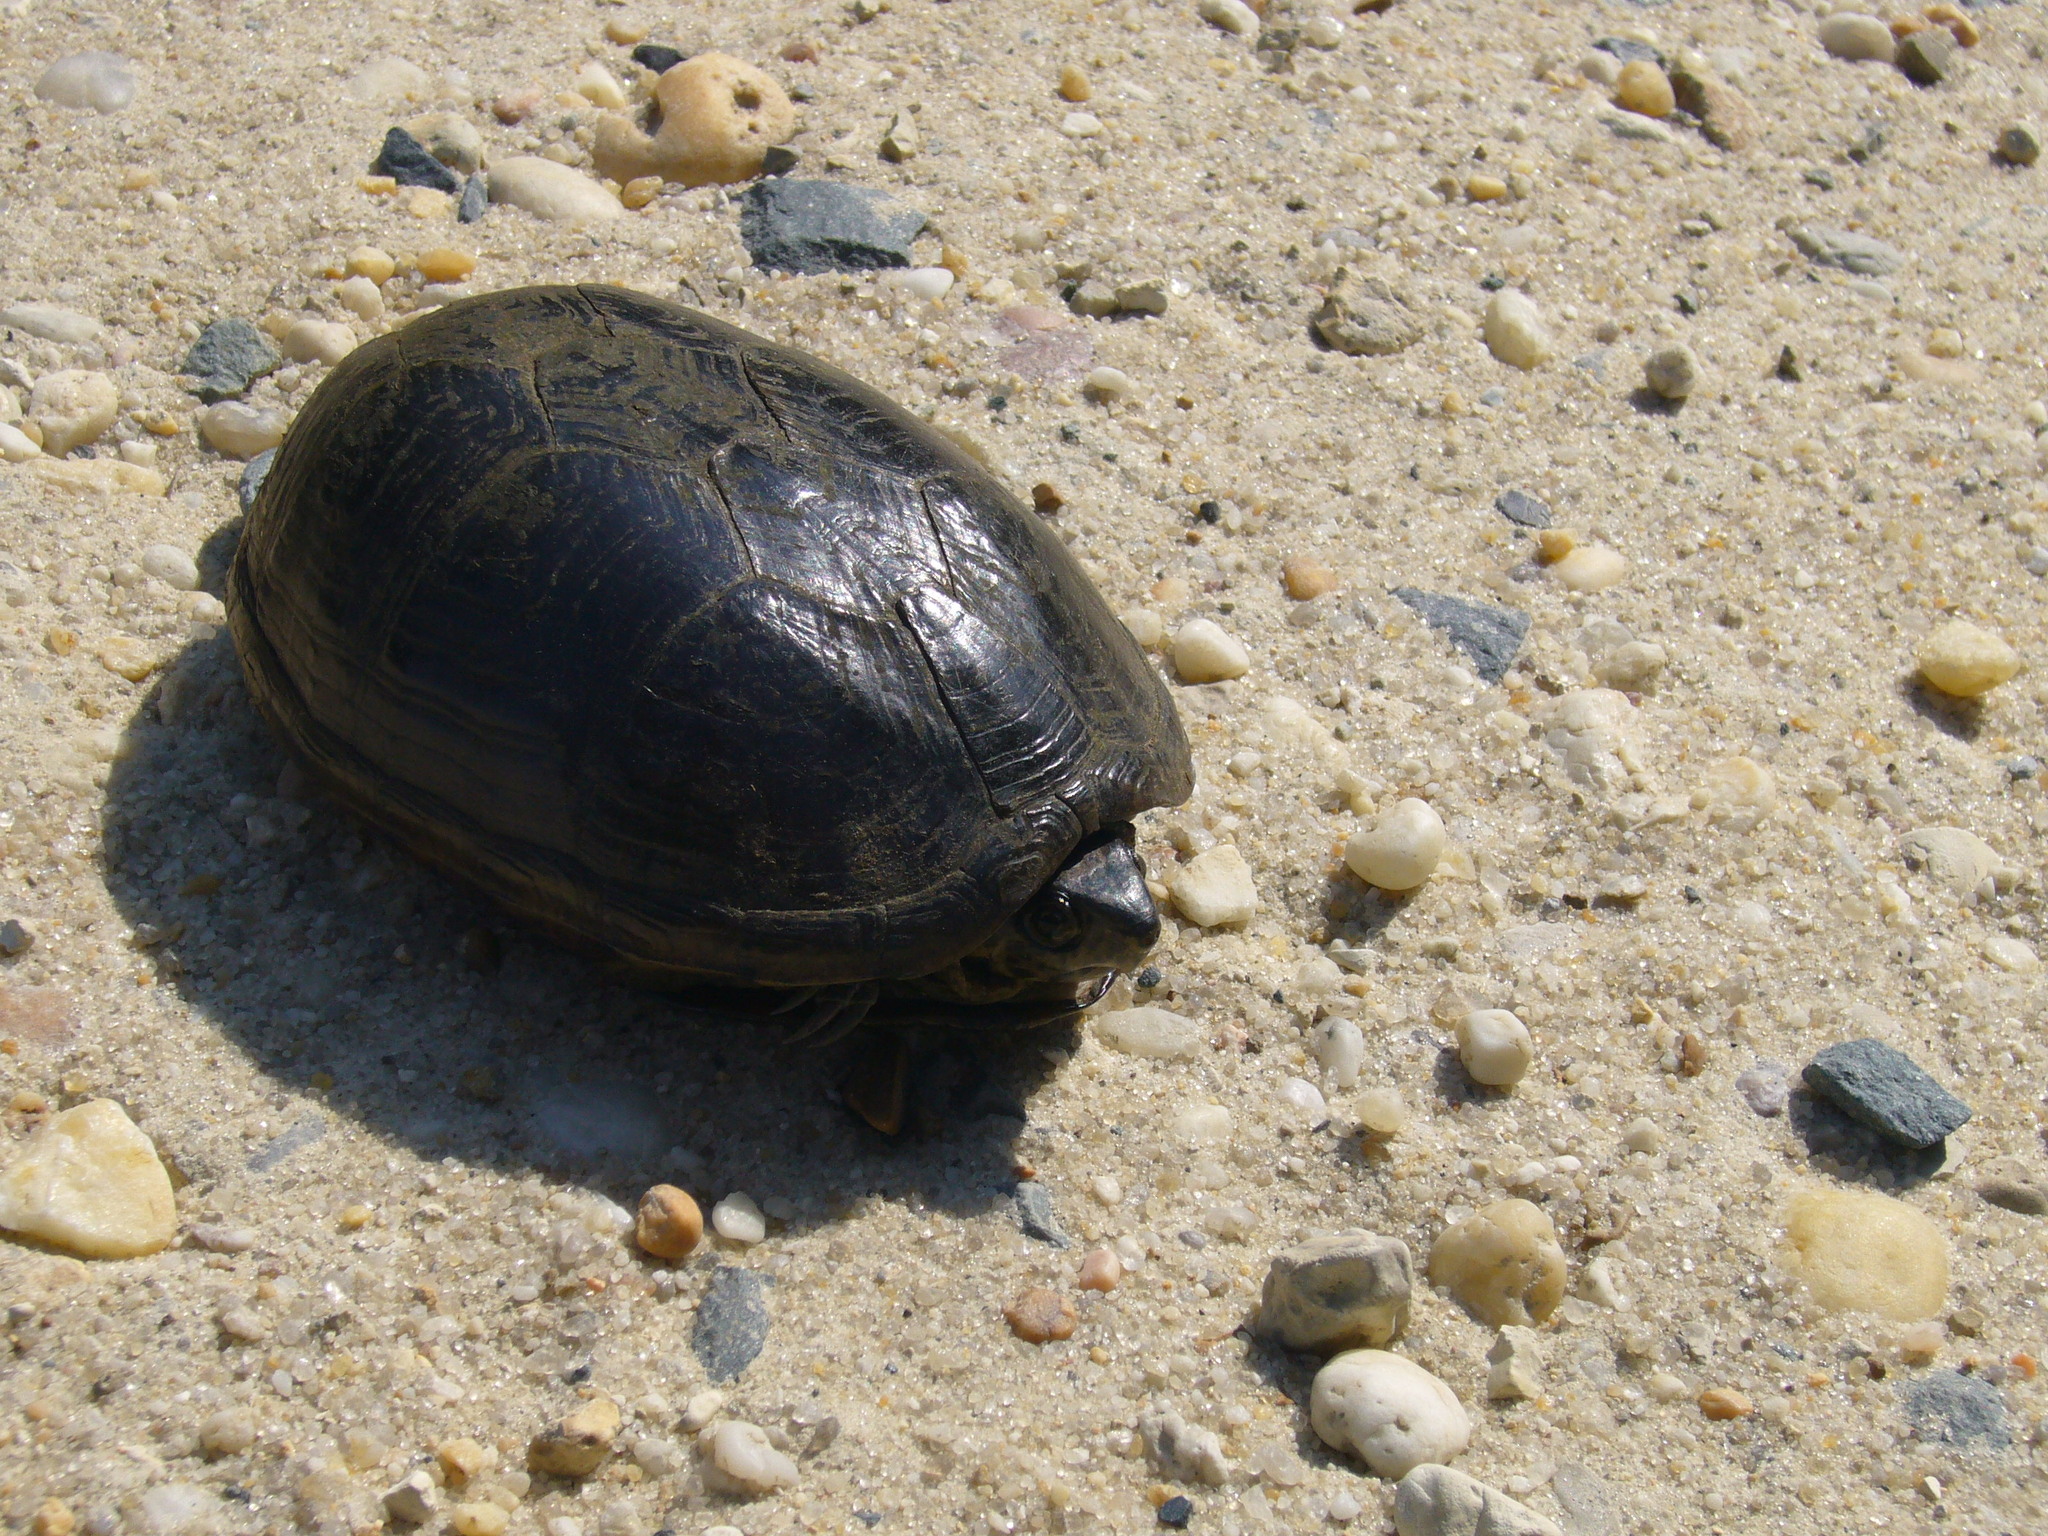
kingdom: Animalia
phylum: Chordata
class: Testudines
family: Kinosternidae
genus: Kinosternon
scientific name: Kinosternon subrubrum
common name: Eastern mud turtle
